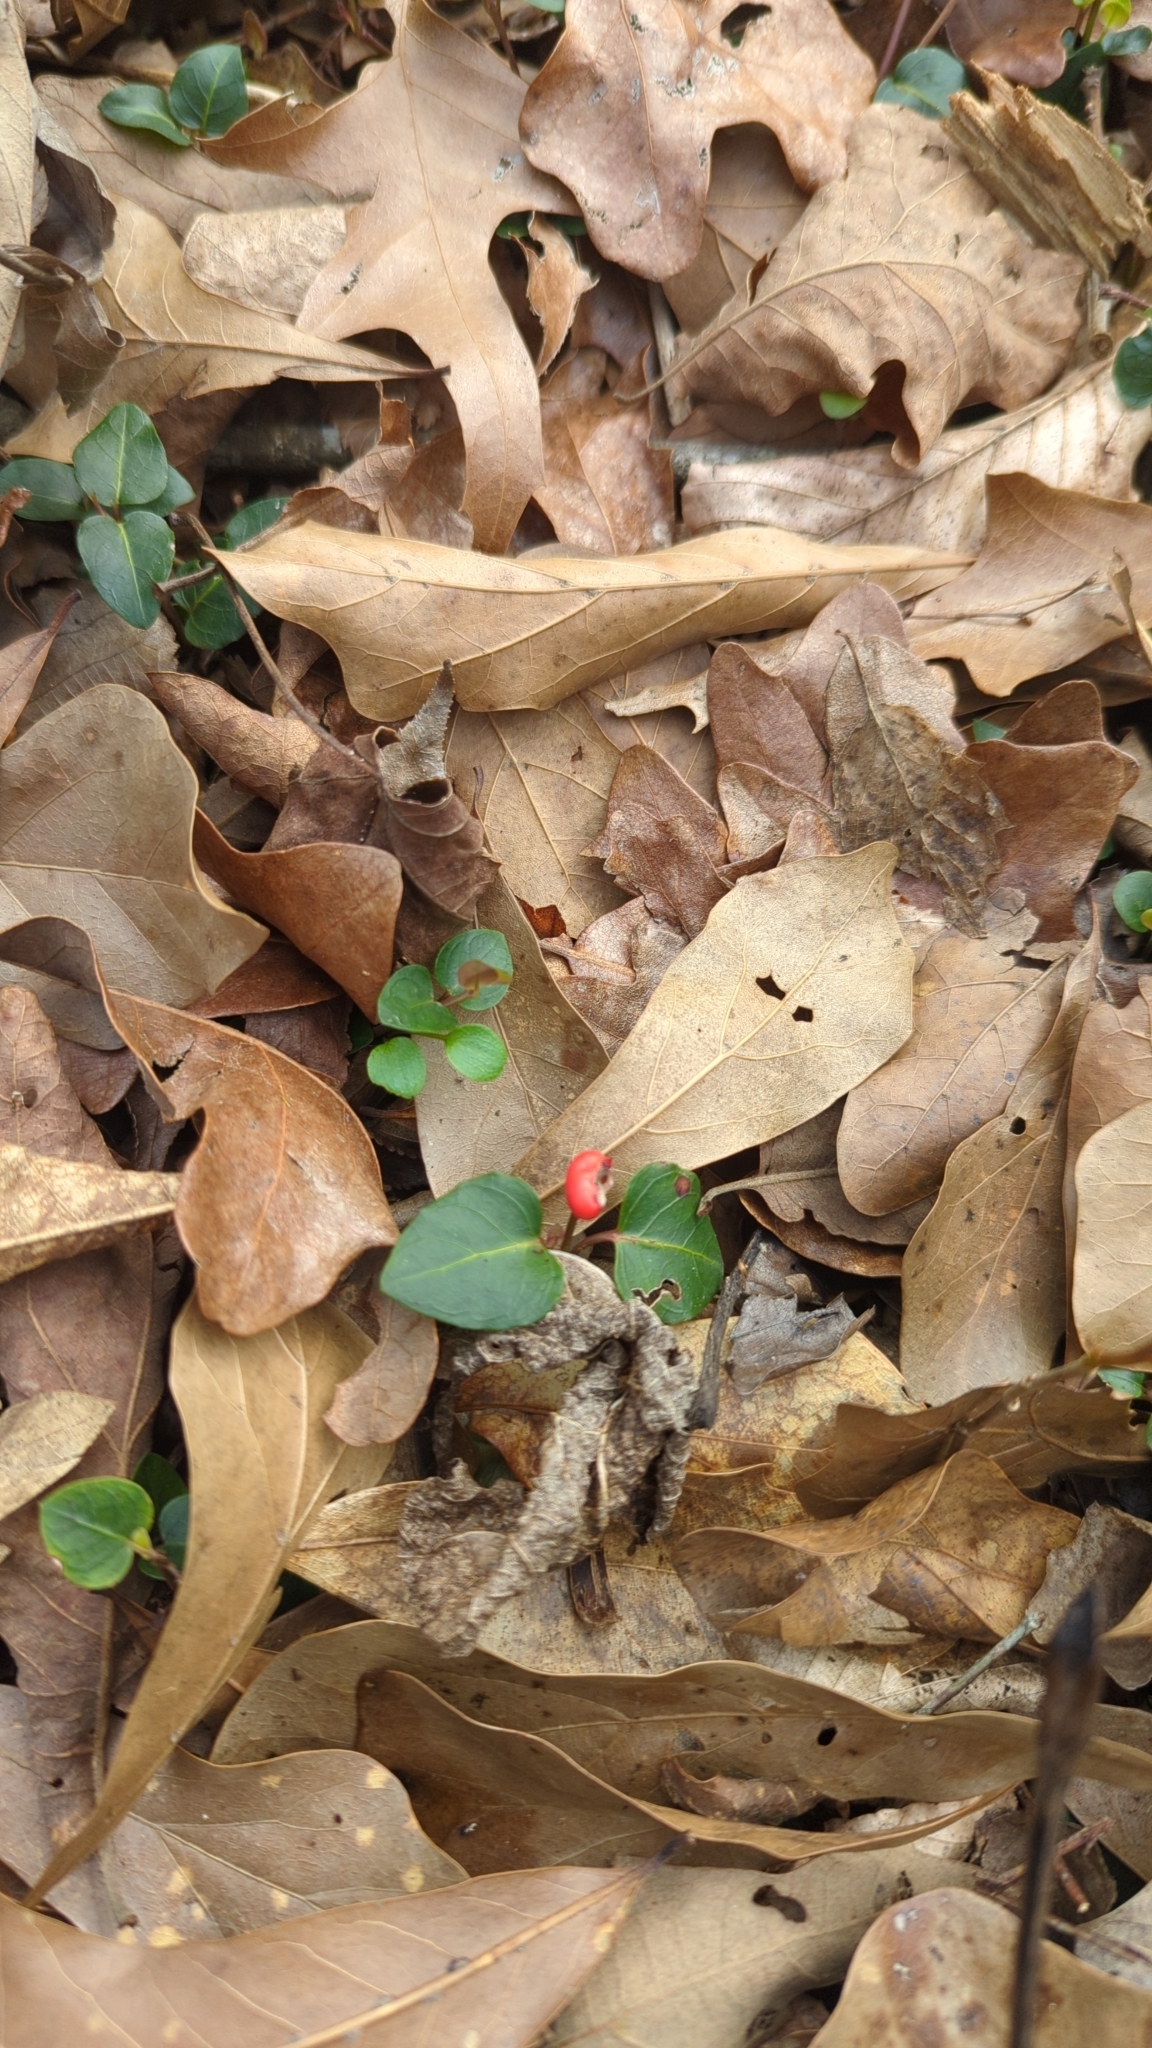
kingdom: Plantae
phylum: Tracheophyta
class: Magnoliopsida
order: Gentianales
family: Rubiaceae
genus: Mitchella
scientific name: Mitchella repens
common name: Partridge-berry
